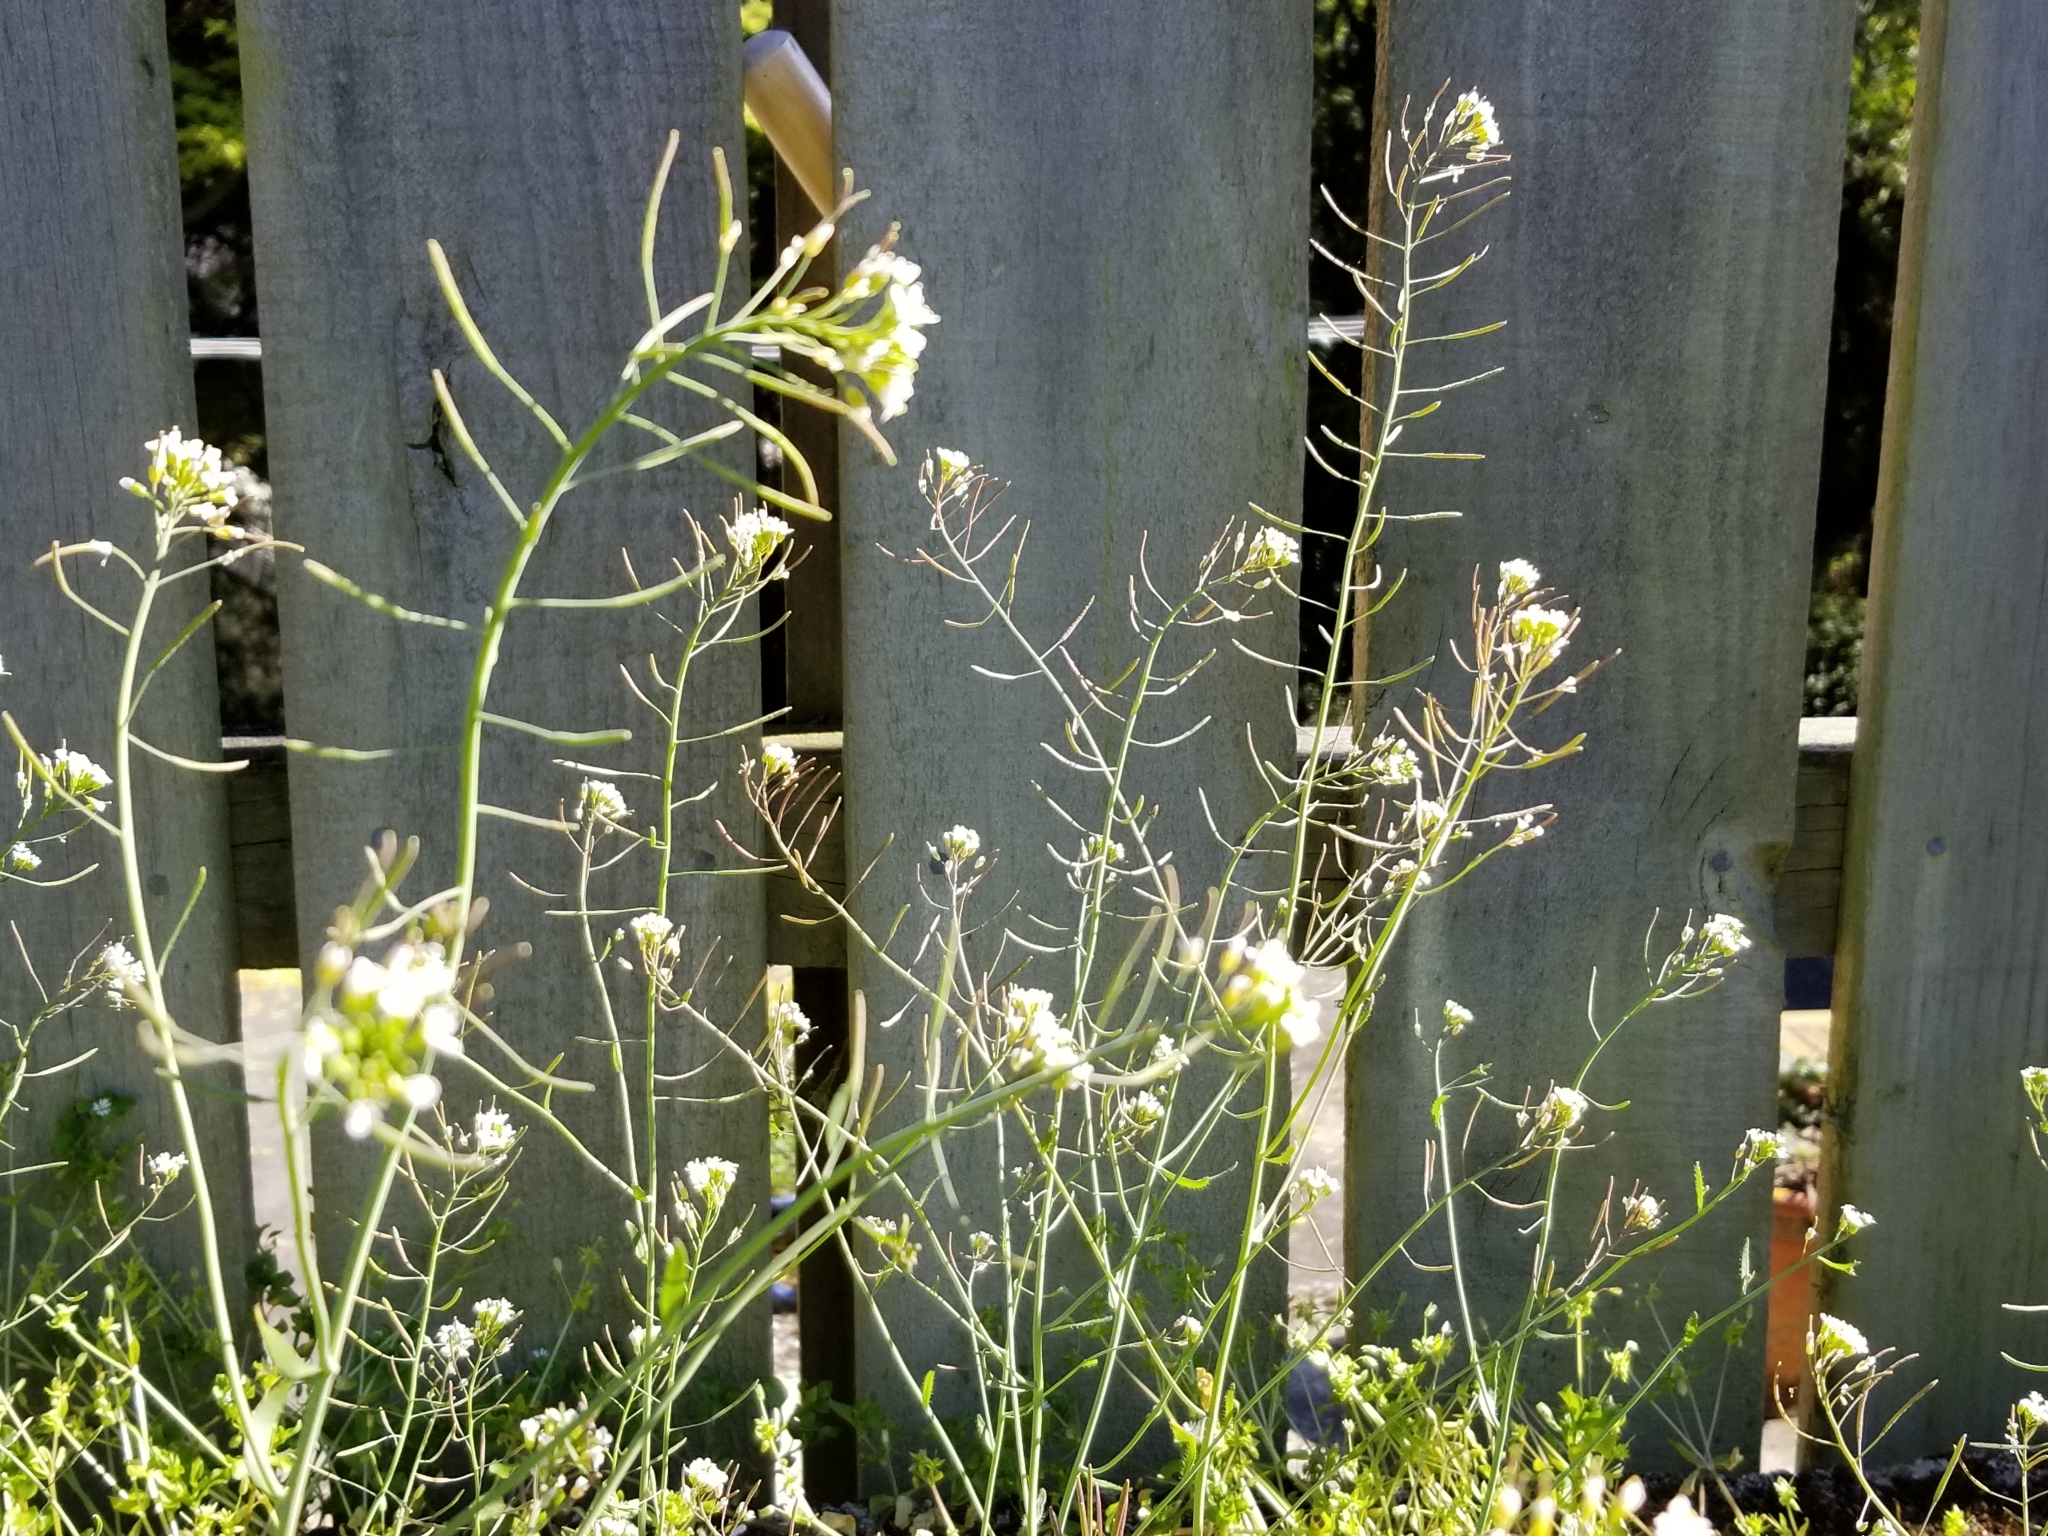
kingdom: Plantae
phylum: Tracheophyta
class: Magnoliopsida
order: Brassicales
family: Brassicaceae
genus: Arabidopsis
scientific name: Arabidopsis thaliana
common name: Thale cress
